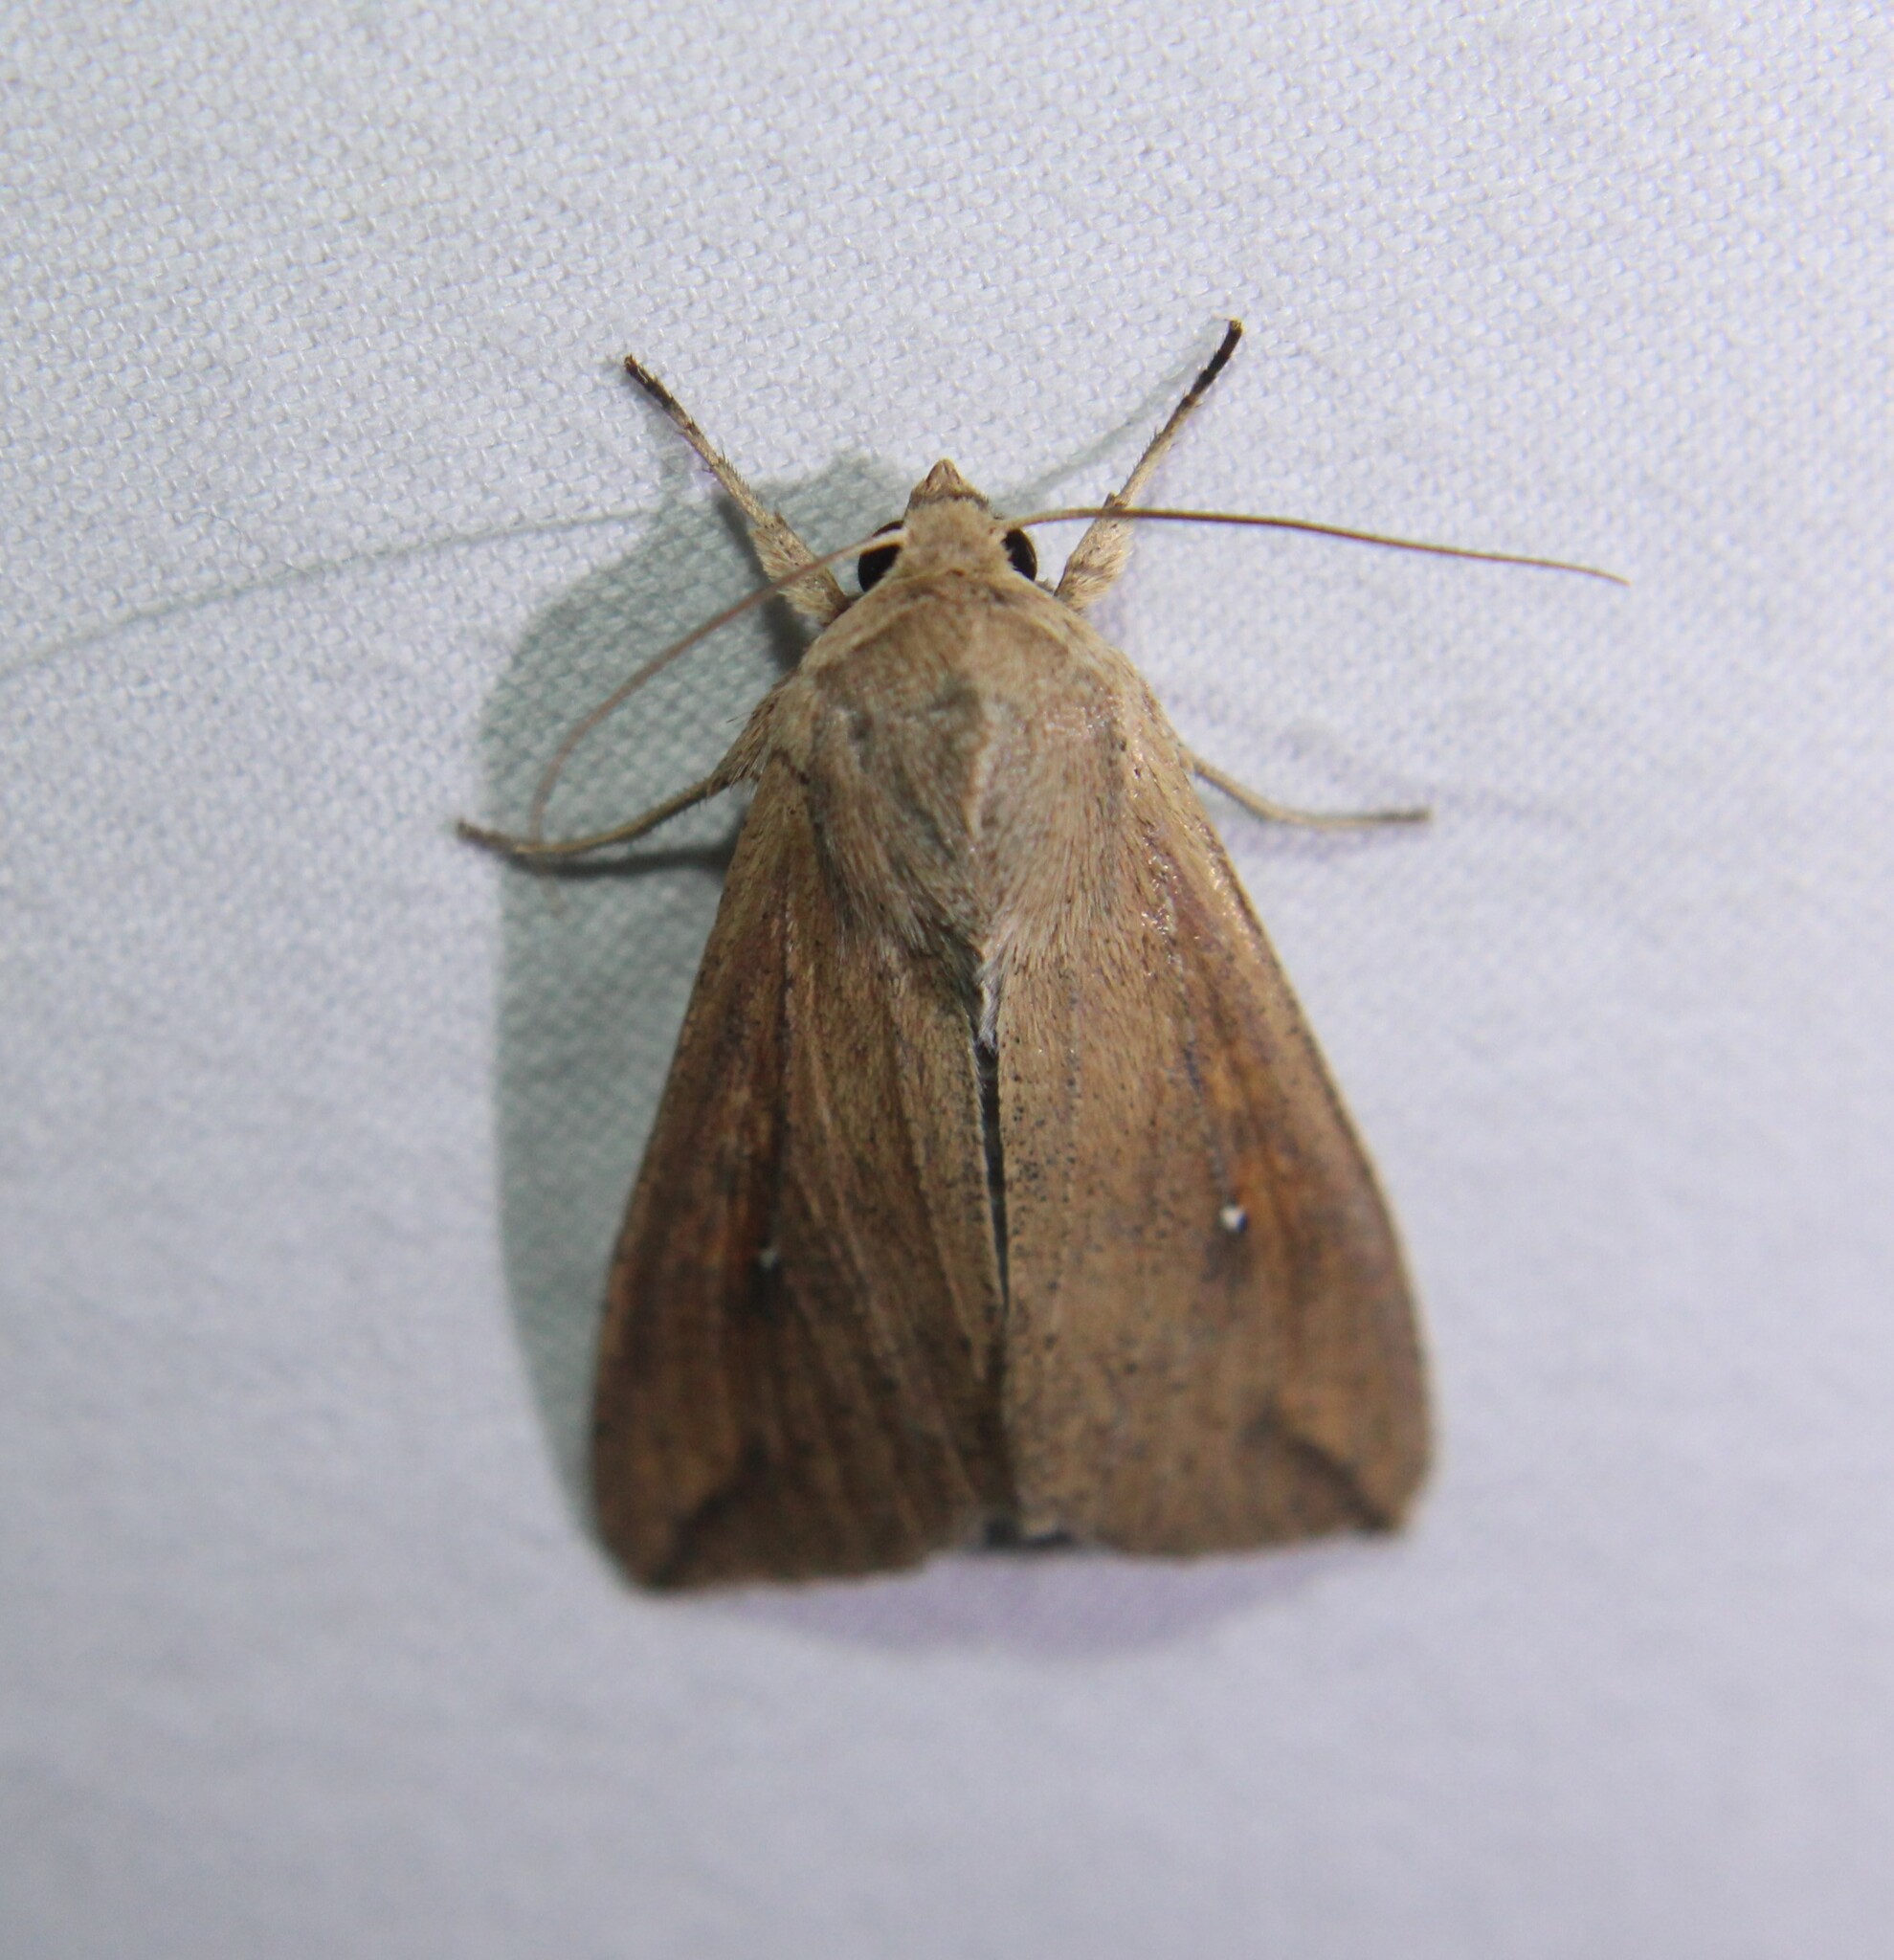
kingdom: Animalia
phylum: Arthropoda
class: Insecta
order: Lepidoptera
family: Noctuidae
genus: Mythimna
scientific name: Mythimna unipuncta
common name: White-speck
